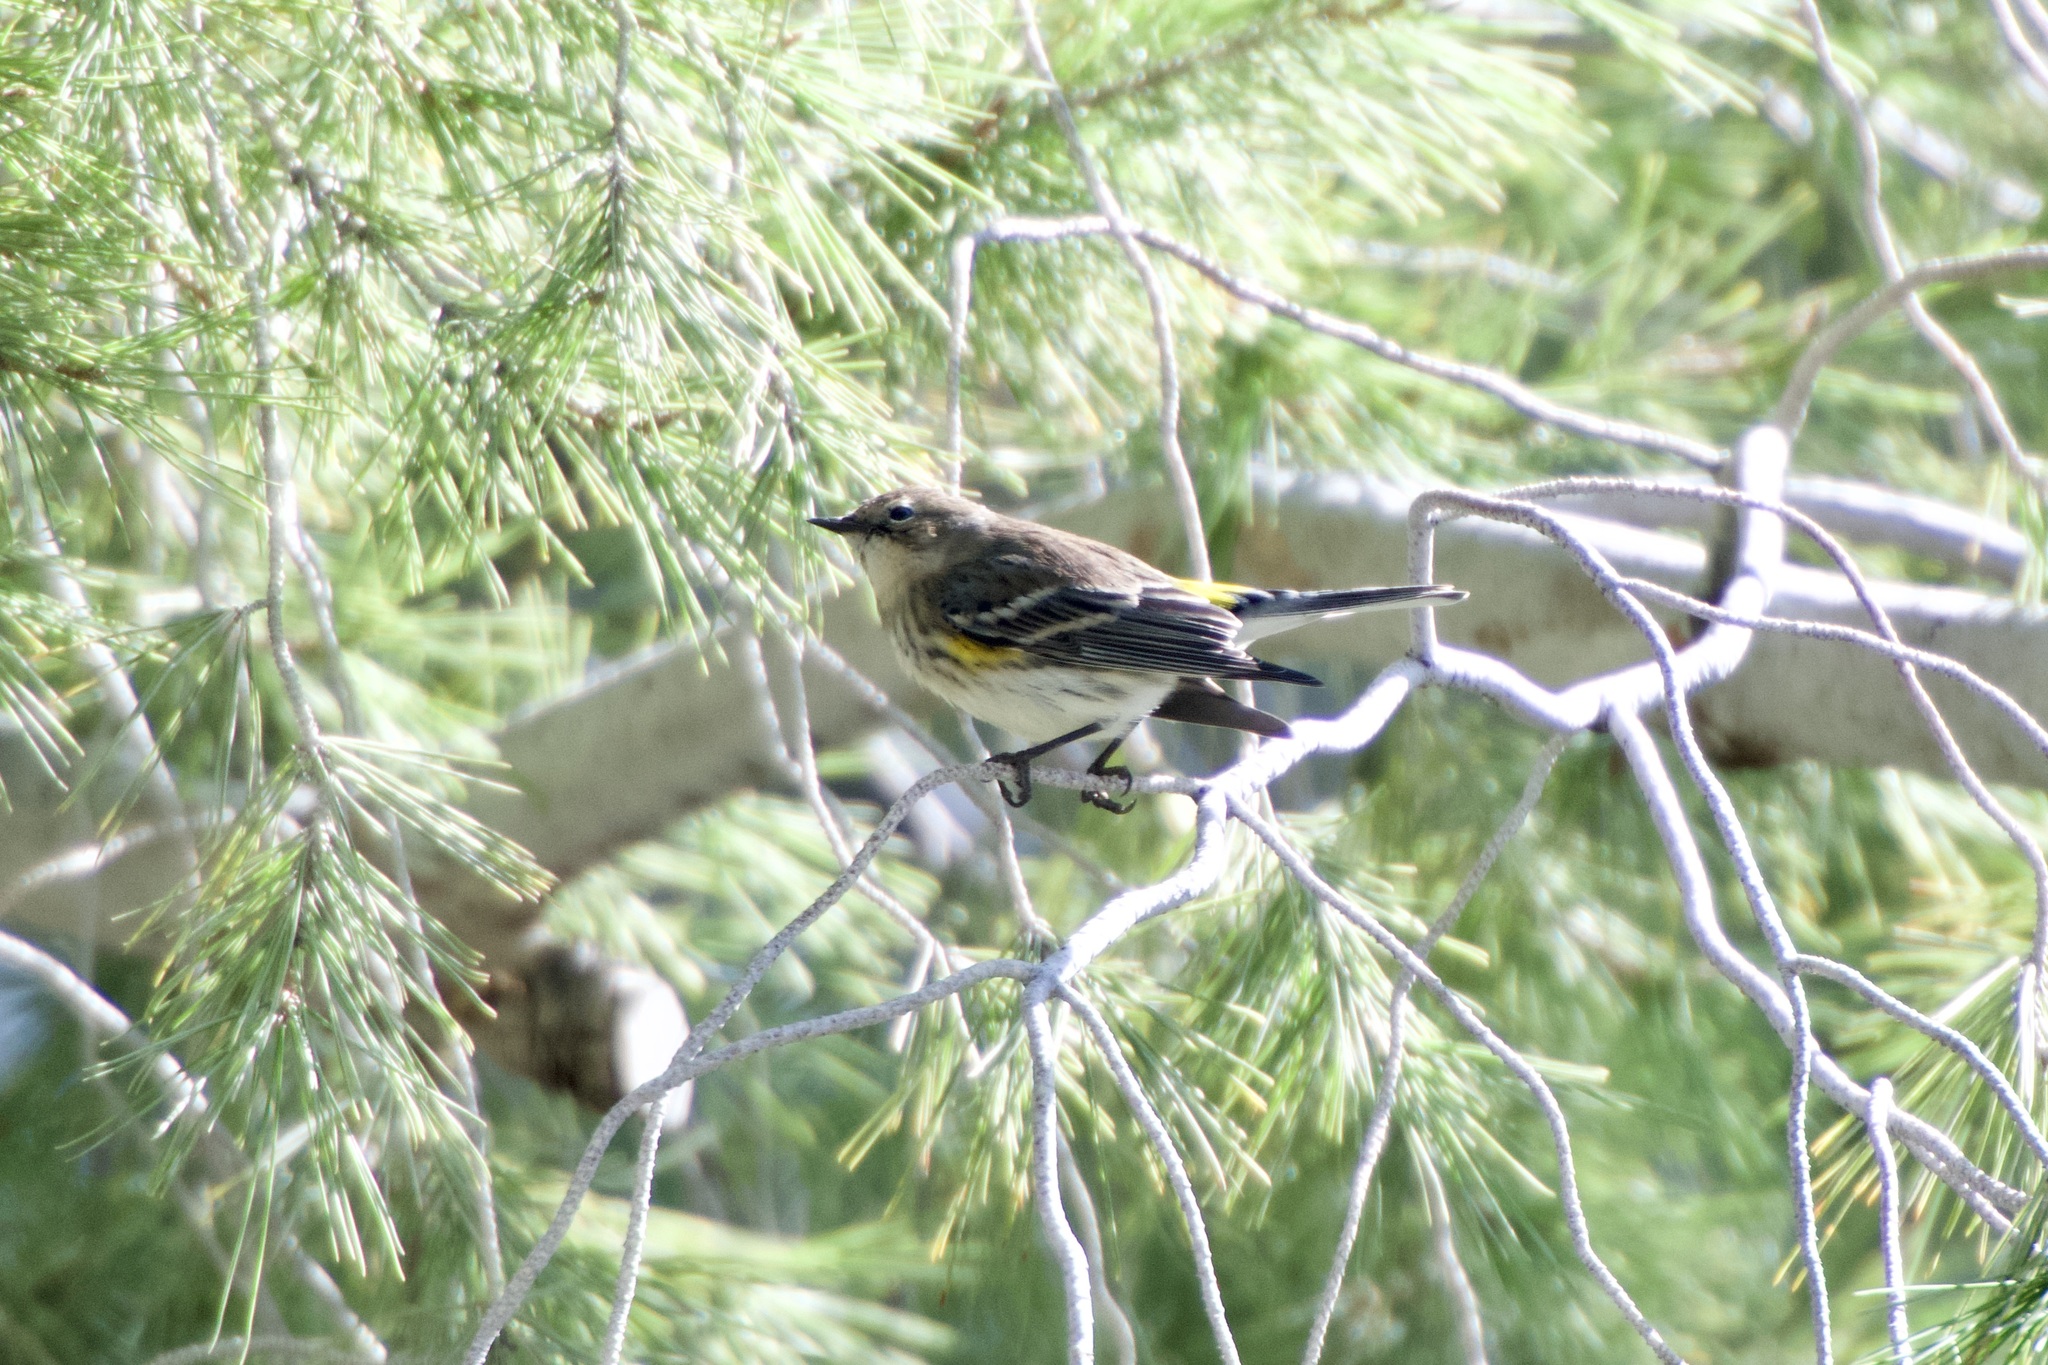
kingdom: Animalia
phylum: Chordata
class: Aves
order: Passeriformes
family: Parulidae
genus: Setophaga
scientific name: Setophaga coronata
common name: Myrtle warbler
